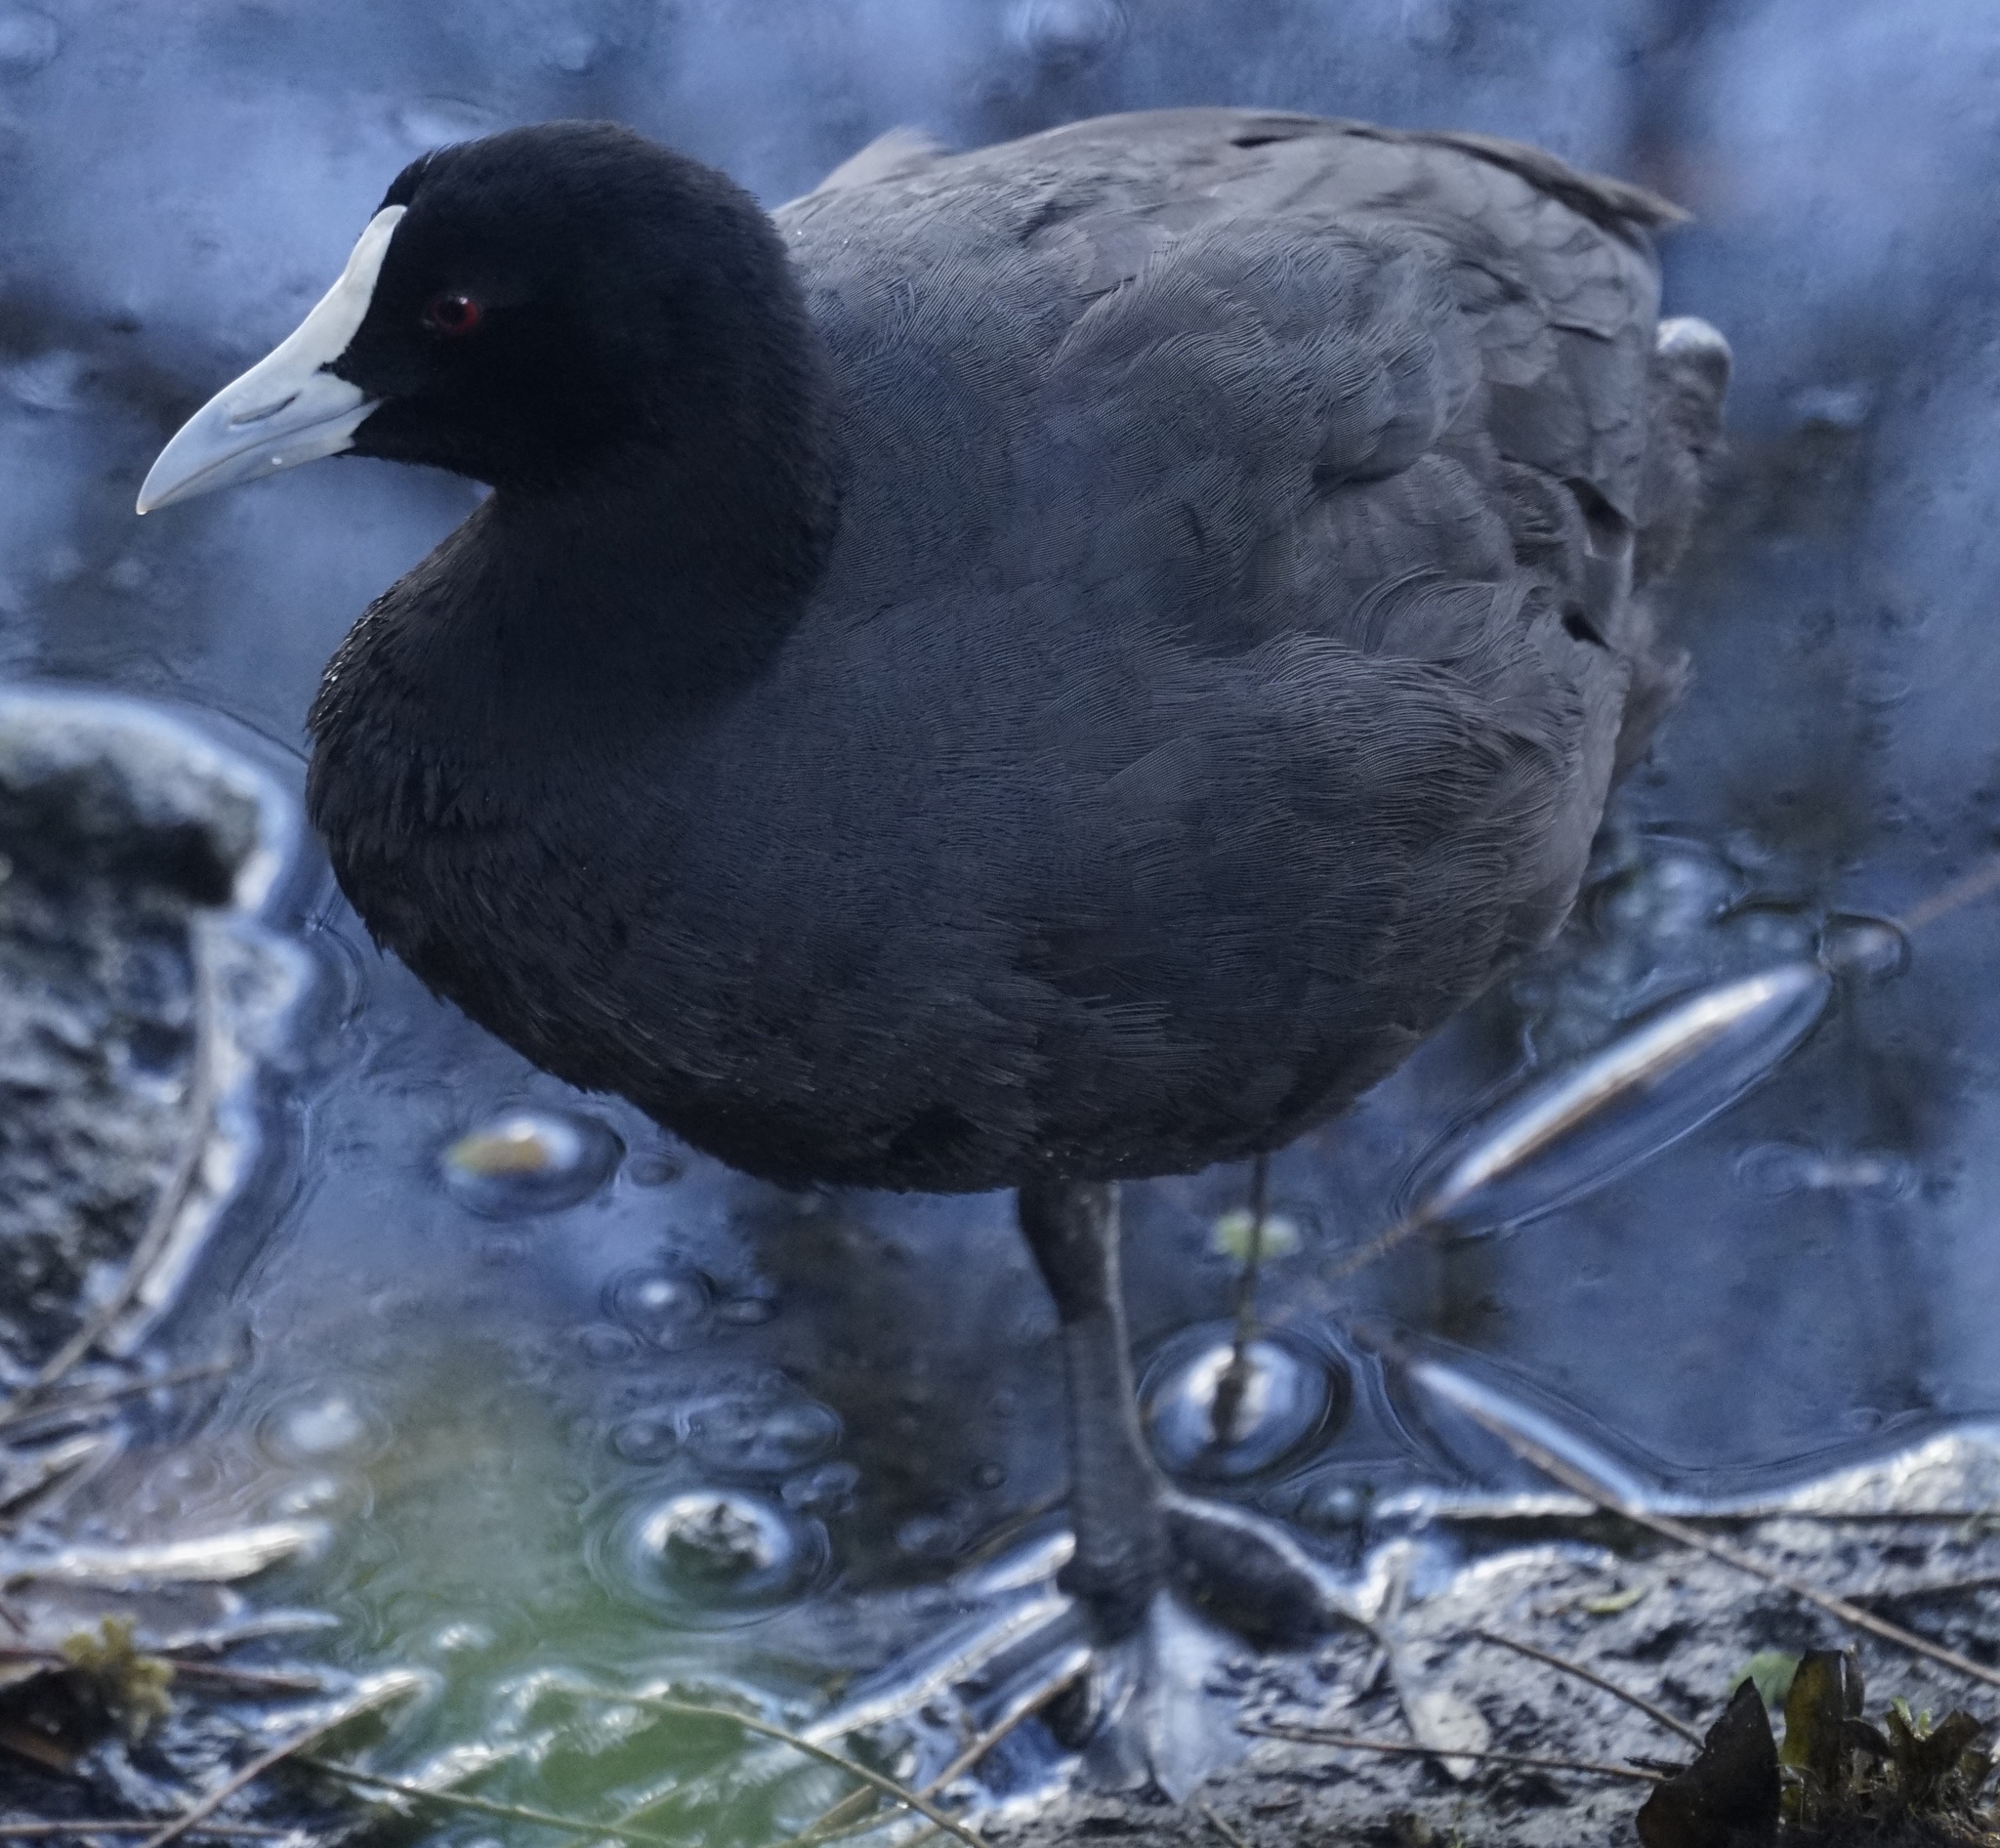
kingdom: Animalia
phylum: Chordata
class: Aves
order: Gruiformes
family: Rallidae
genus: Fulica
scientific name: Fulica atra
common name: Eurasian coot
